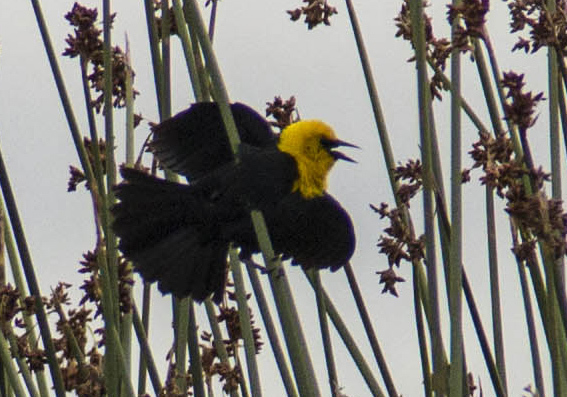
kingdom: Animalia
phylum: Chordata
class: Aves
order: Passeriformes
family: Icteridae
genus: Chrysomus
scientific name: Chrysomus icterocephalus
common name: Yellow-hooded blackbird
